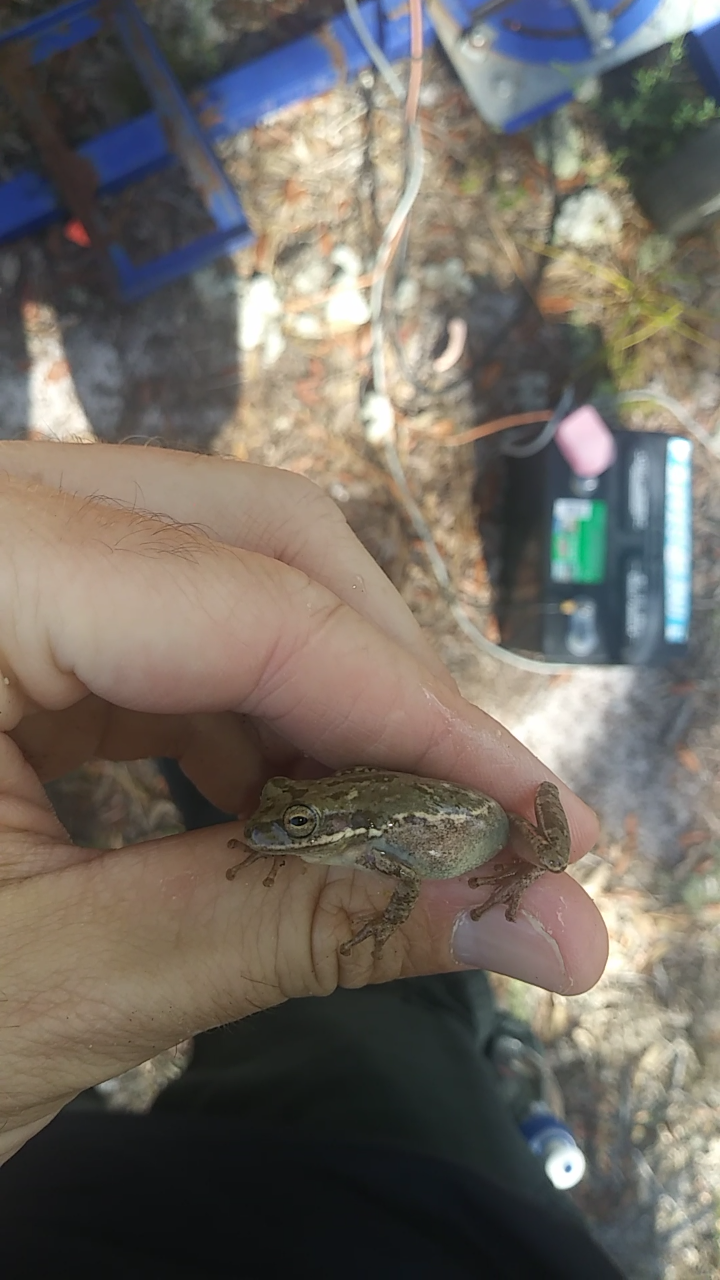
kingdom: Animalia
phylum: Chordata
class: Amphibia
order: Anura
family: Hylidae
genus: Dryophytes
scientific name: Dryophytes squirellus
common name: Squirrel treefrog
